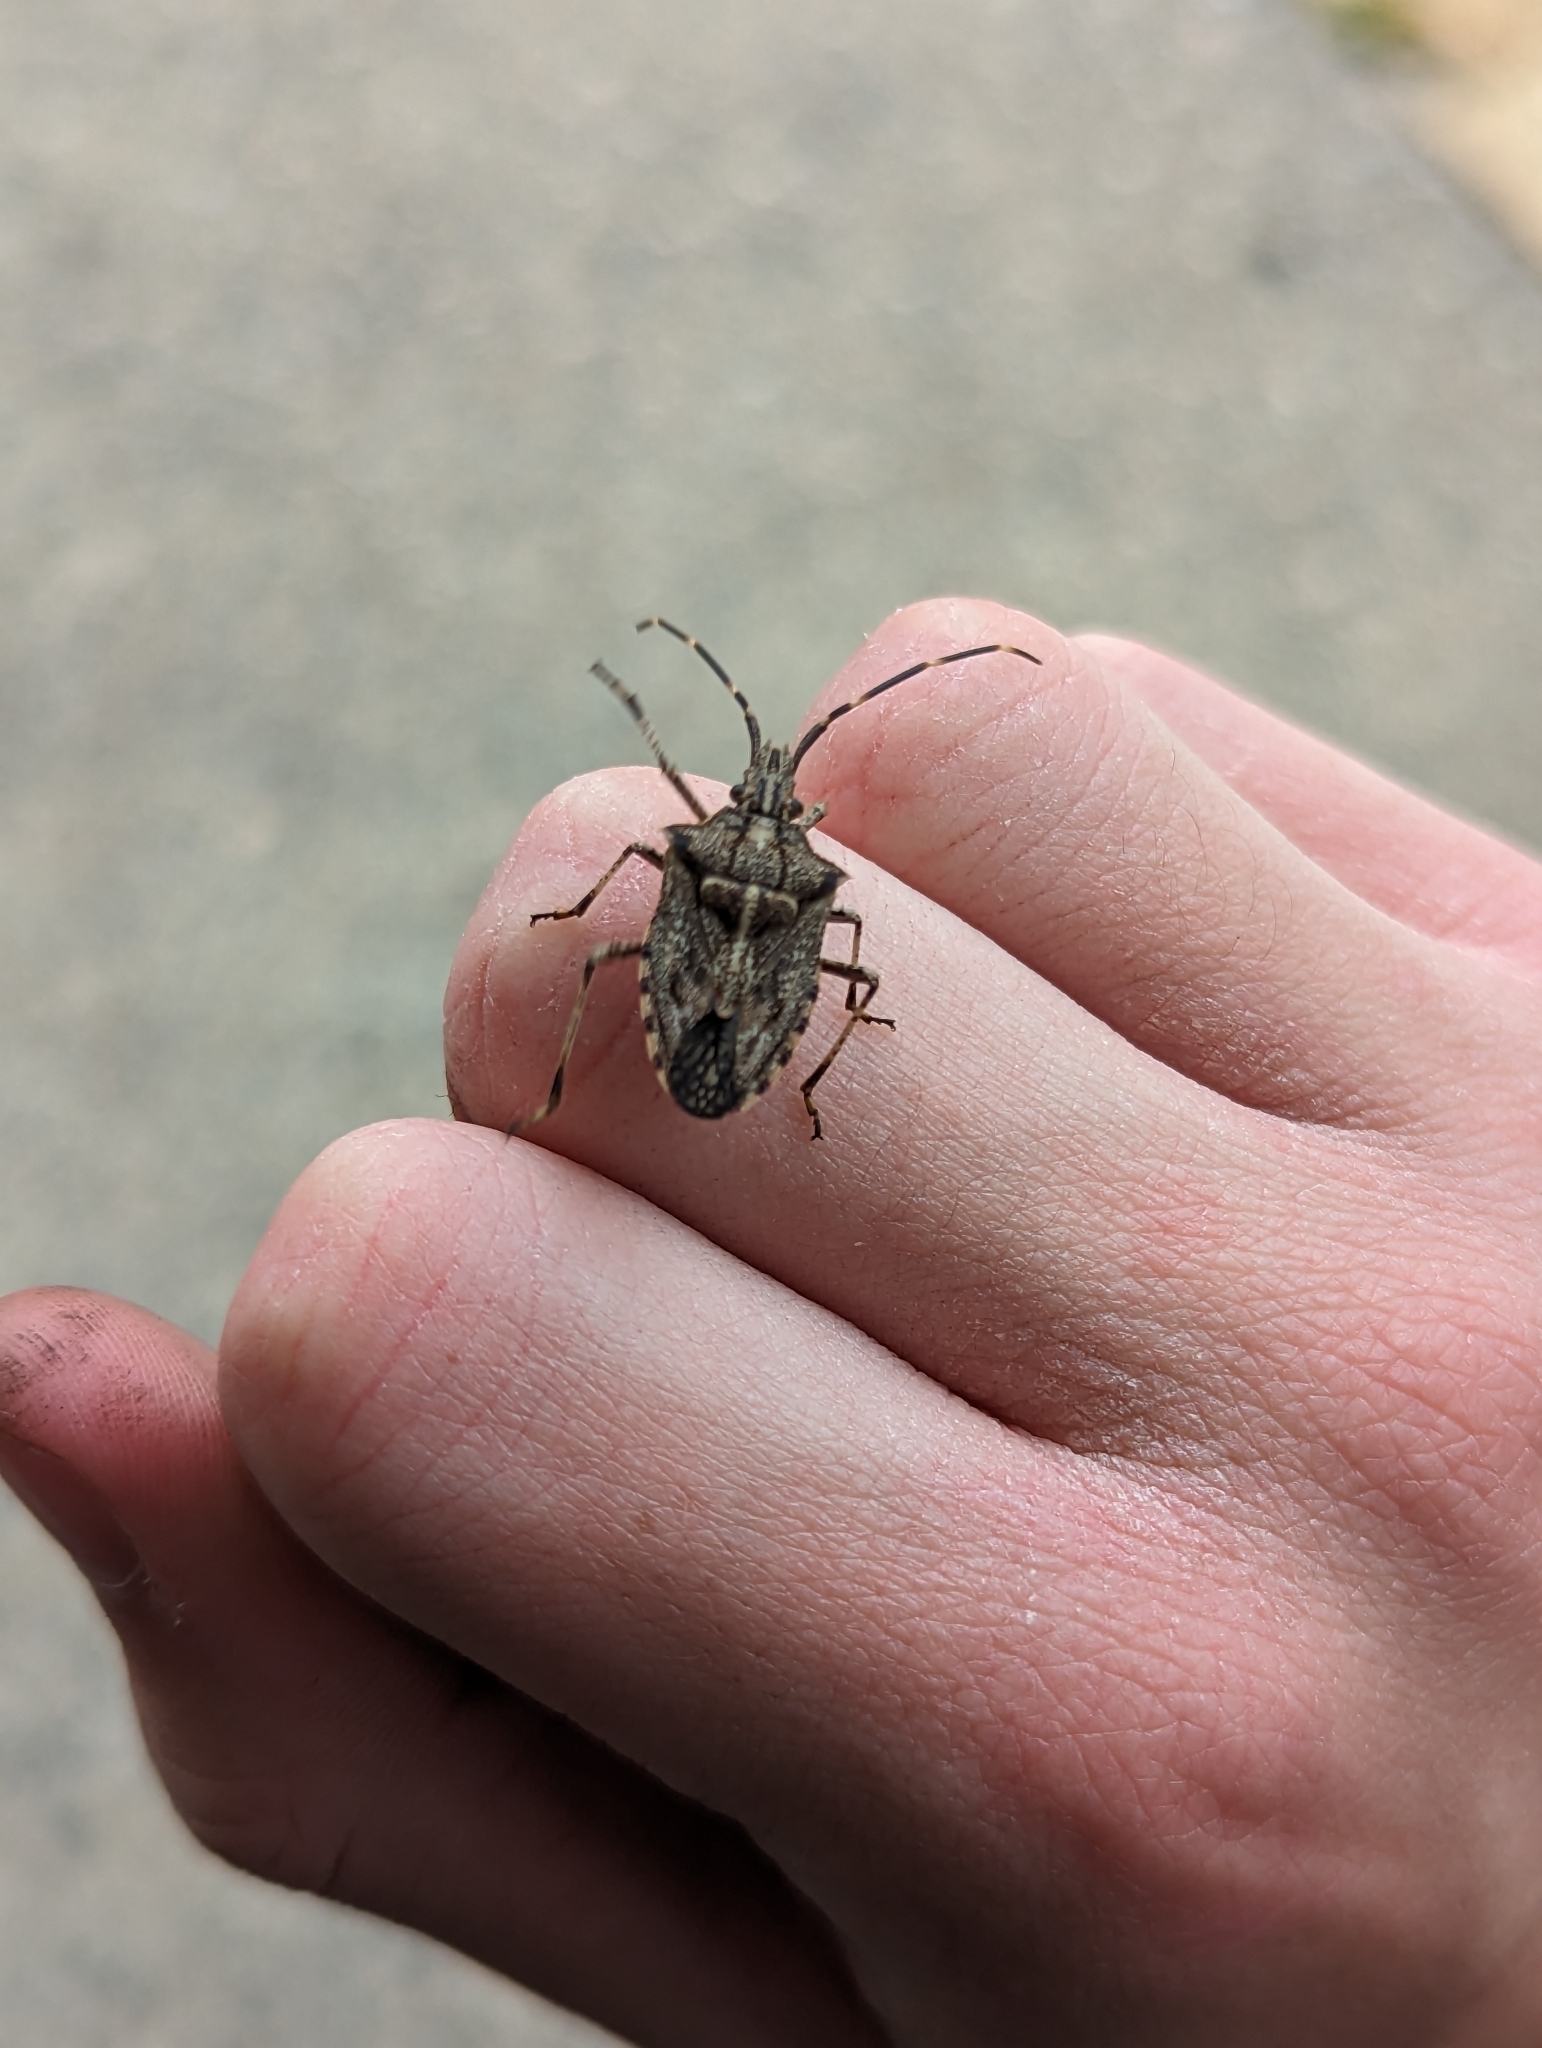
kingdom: Animalia
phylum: Arthropoda
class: Insecta
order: Hemiptera
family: Pentatomidae
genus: Alcaeus
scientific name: Alcaeus
